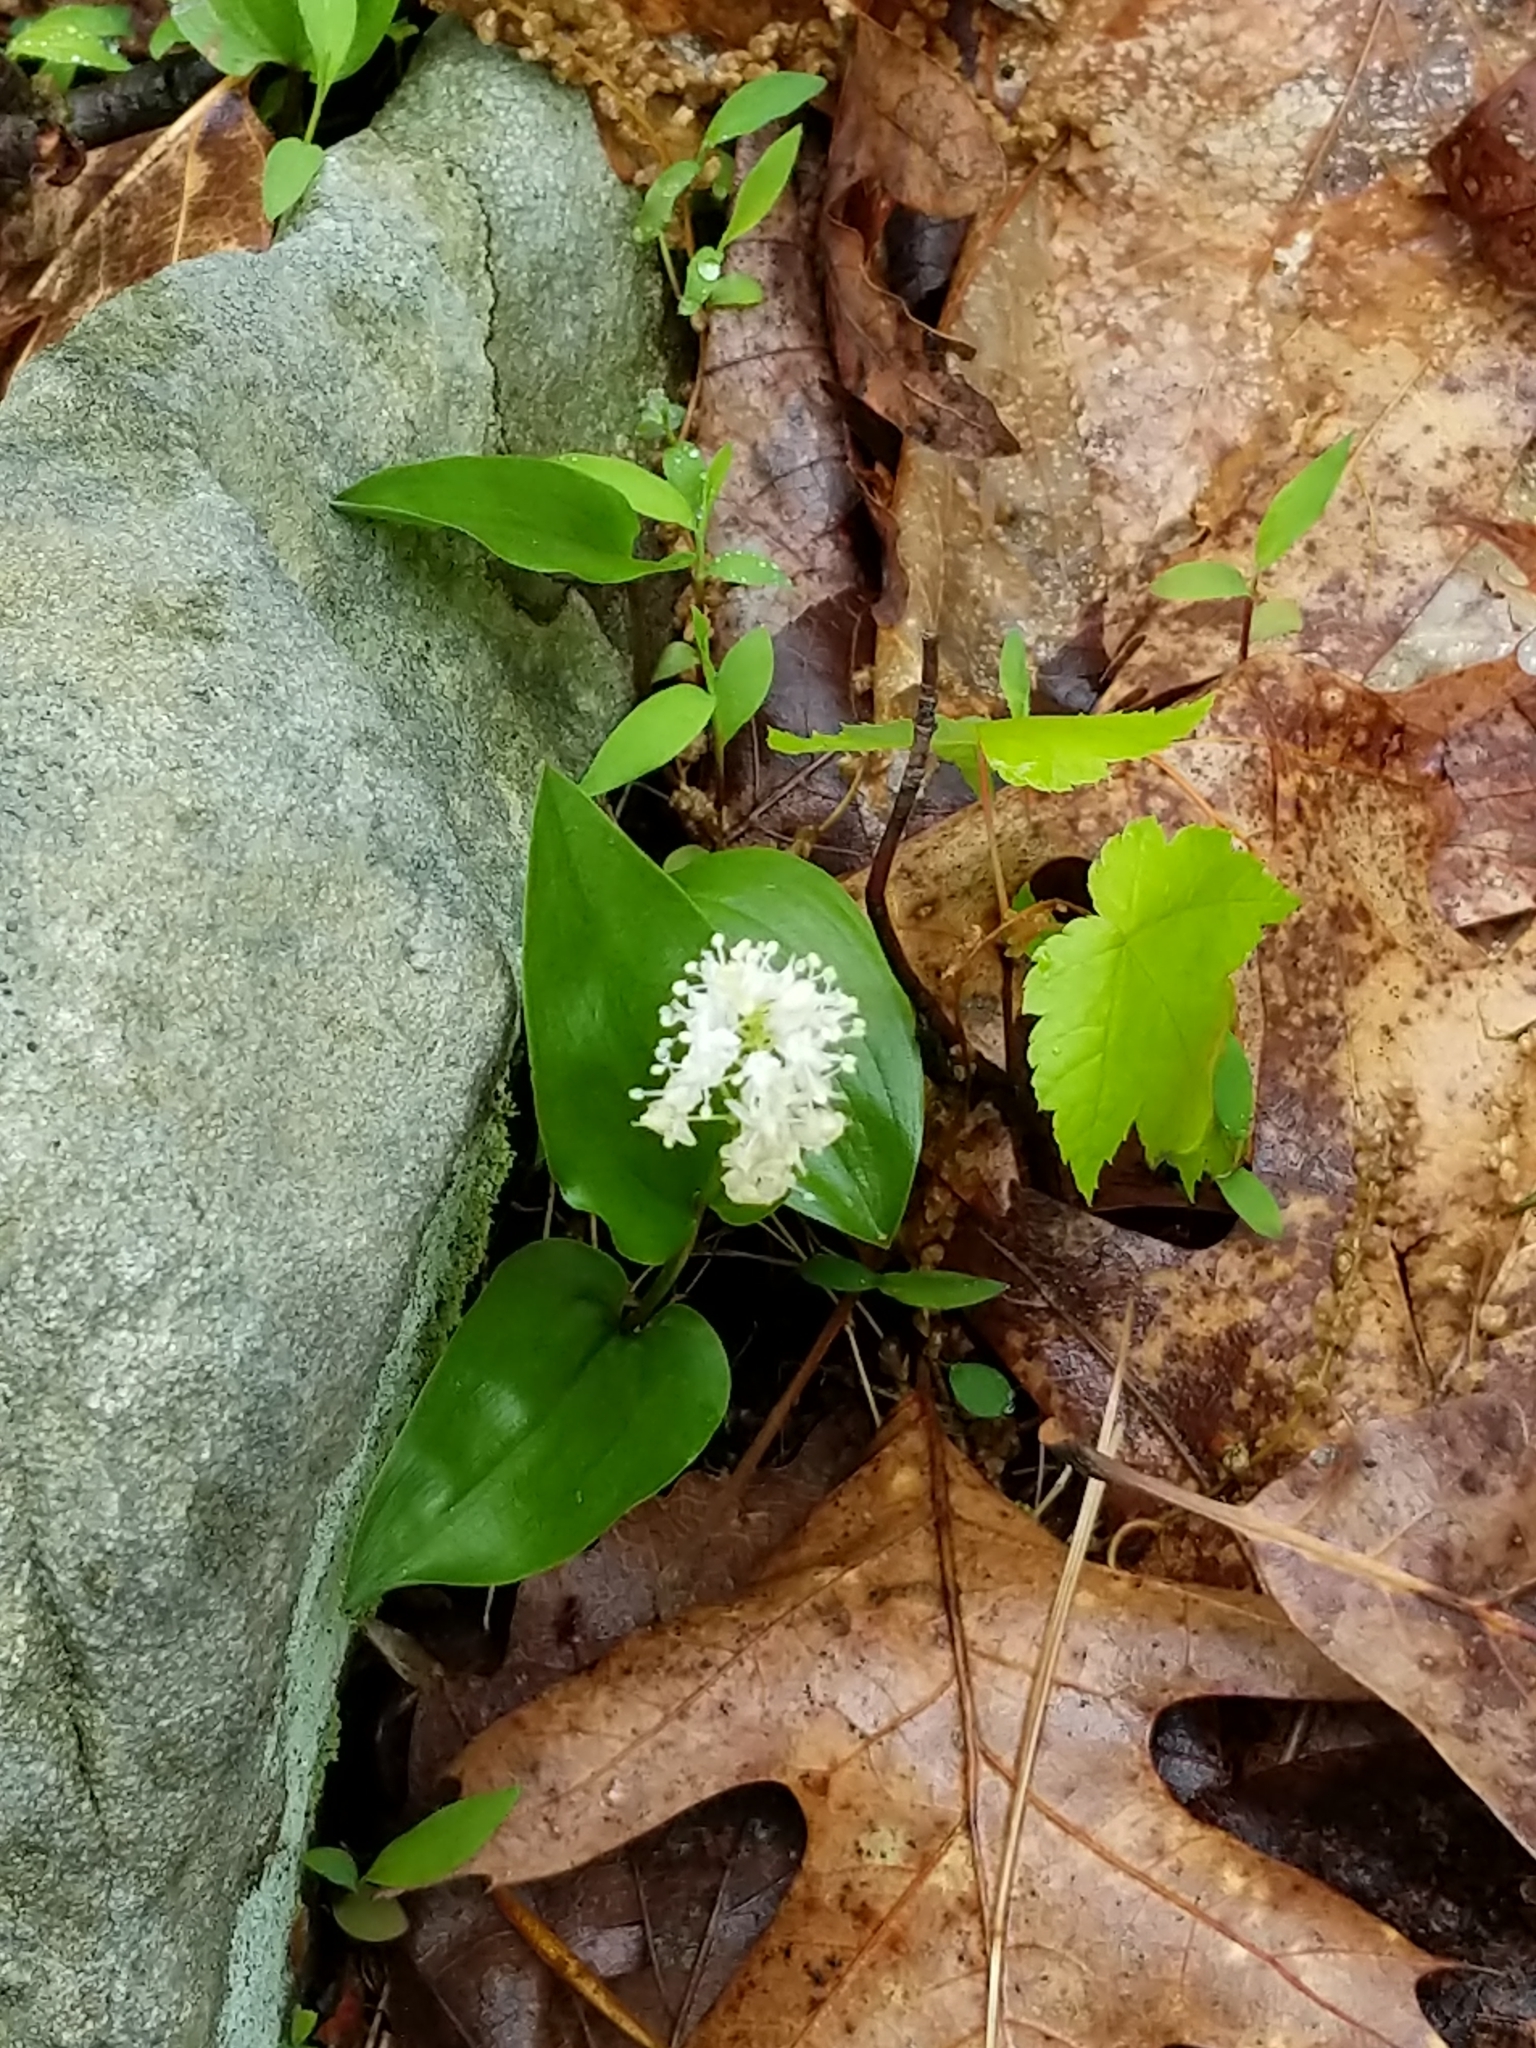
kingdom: Plantae
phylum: Tracheophyta
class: Liliopsida
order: Asparagales
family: Asparagaceae
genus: Maianthemum
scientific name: Maianthemum canadense
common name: False lily-of-the-valley
